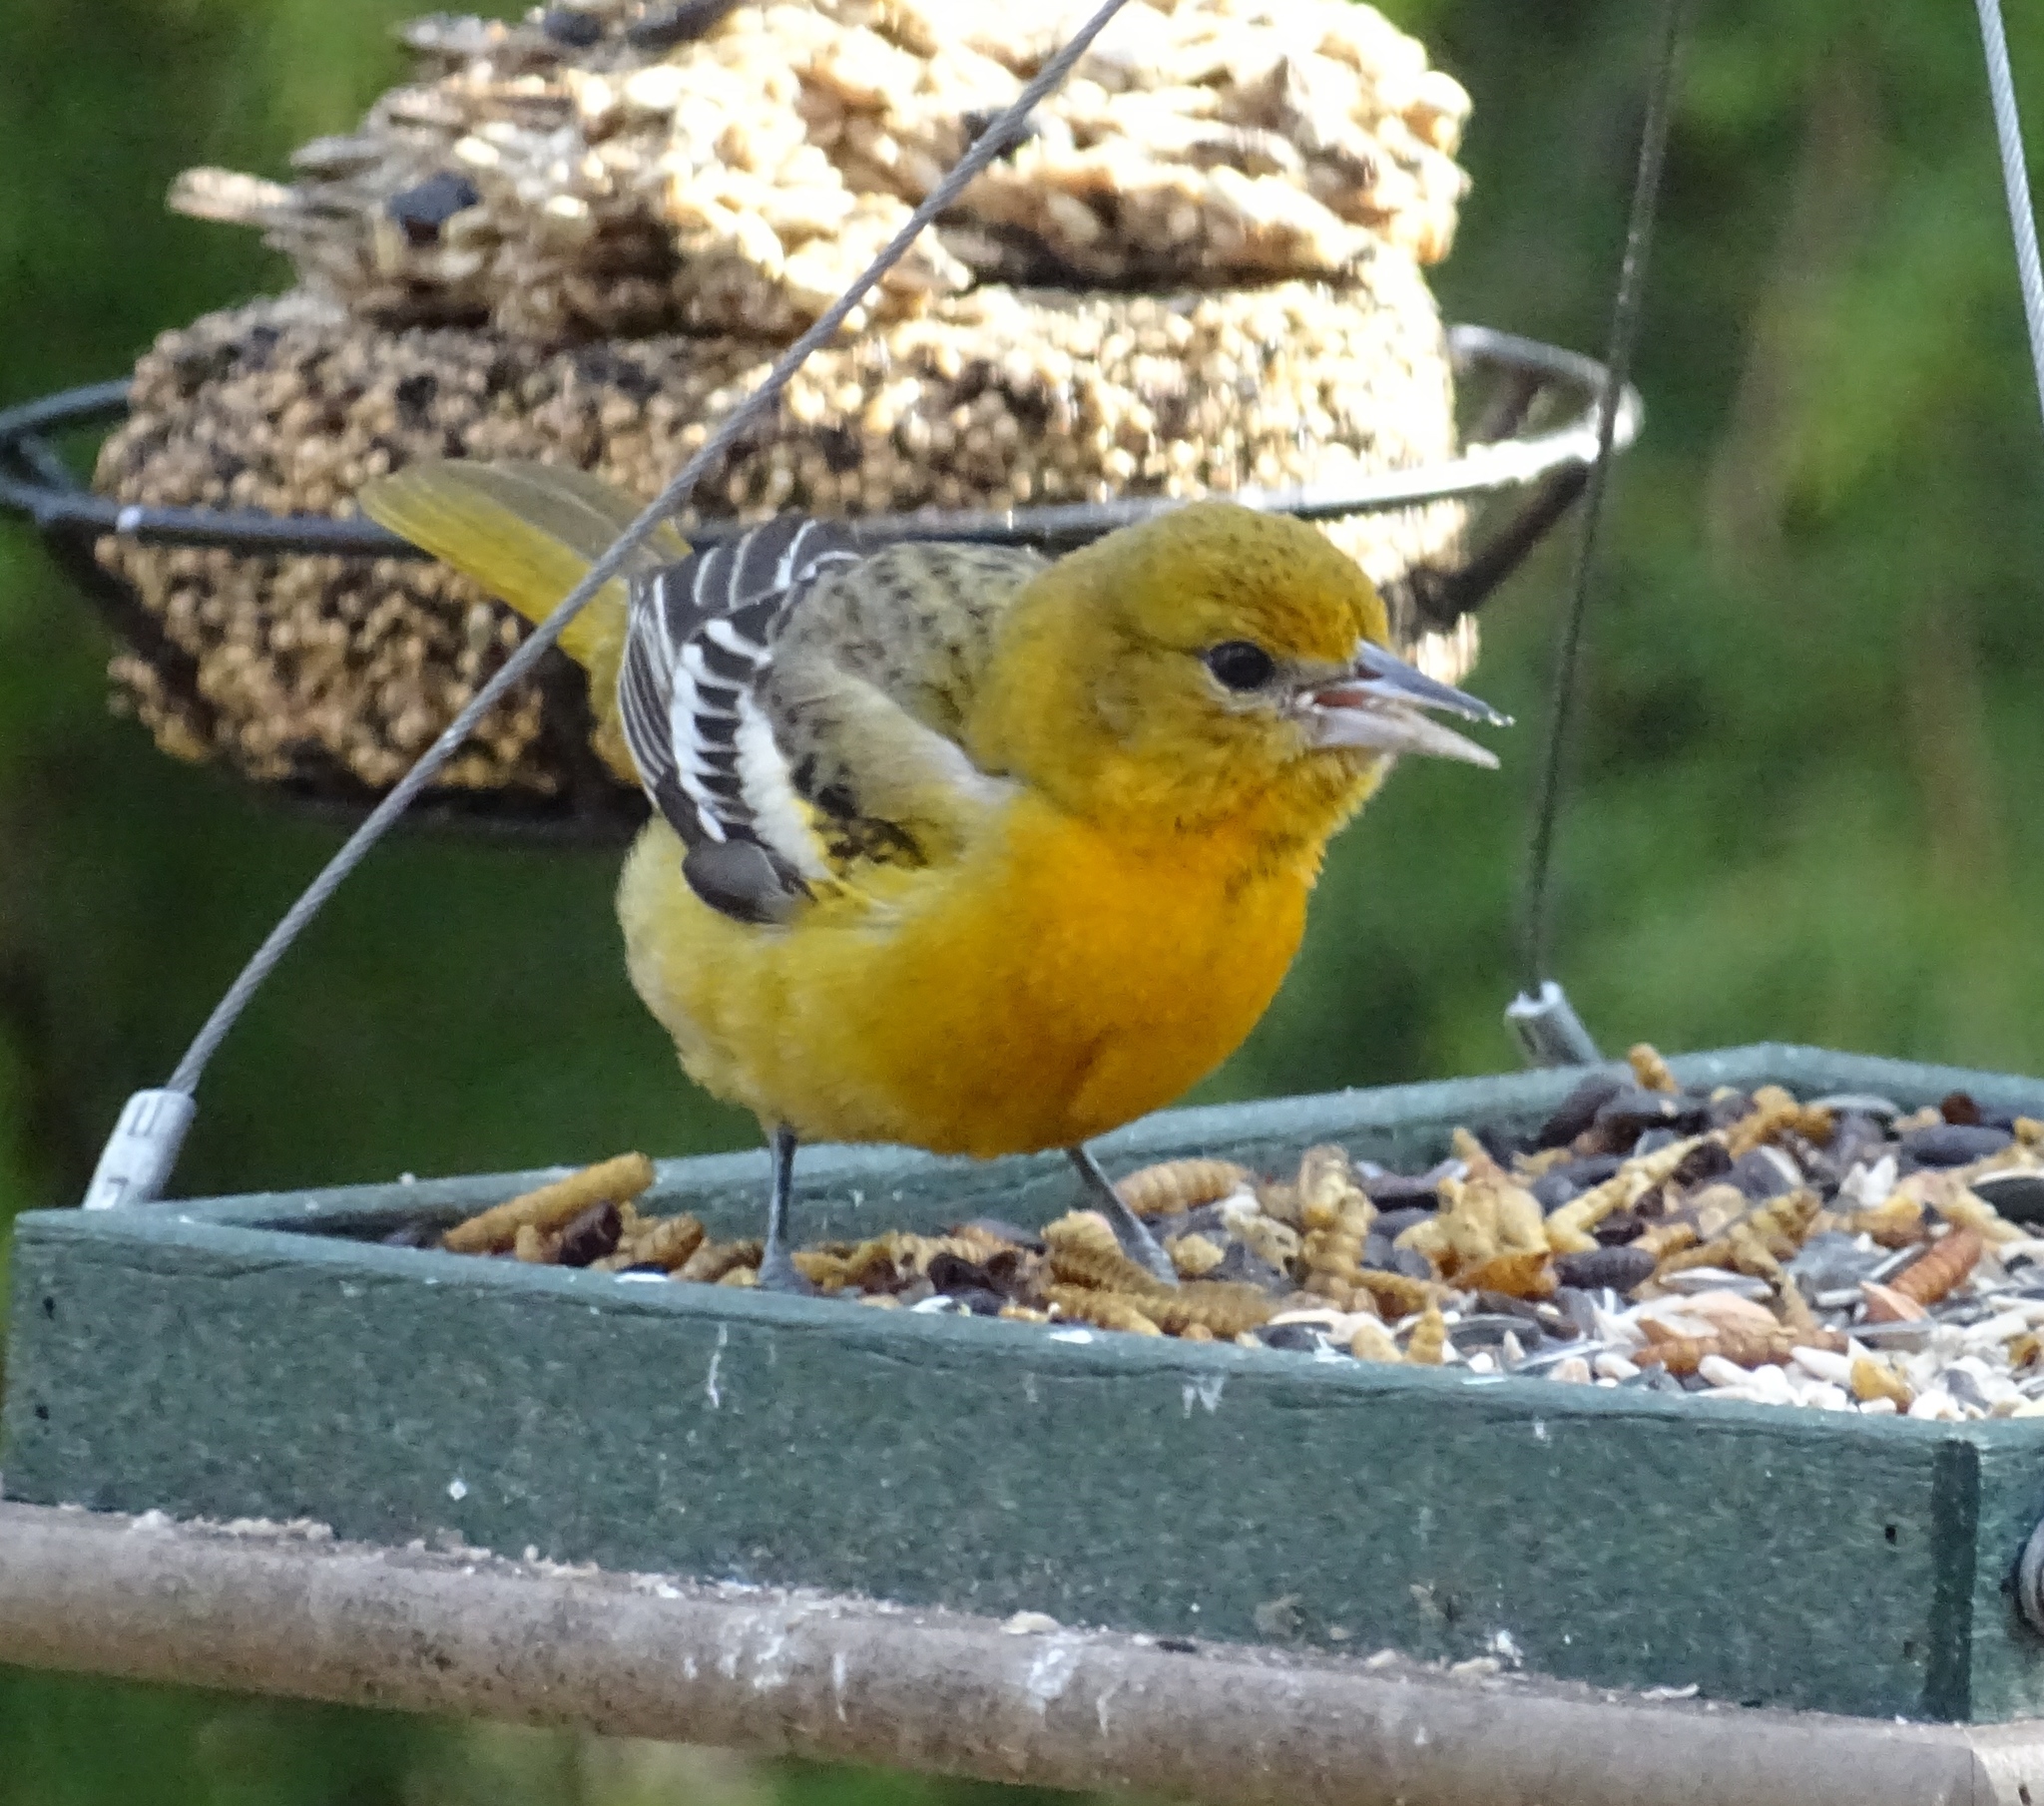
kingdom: Animalia
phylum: Chordata
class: Aves
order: Passeriformes
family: Icteridae
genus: Icterus
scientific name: Icterus galbula
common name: Baltimore oriole
